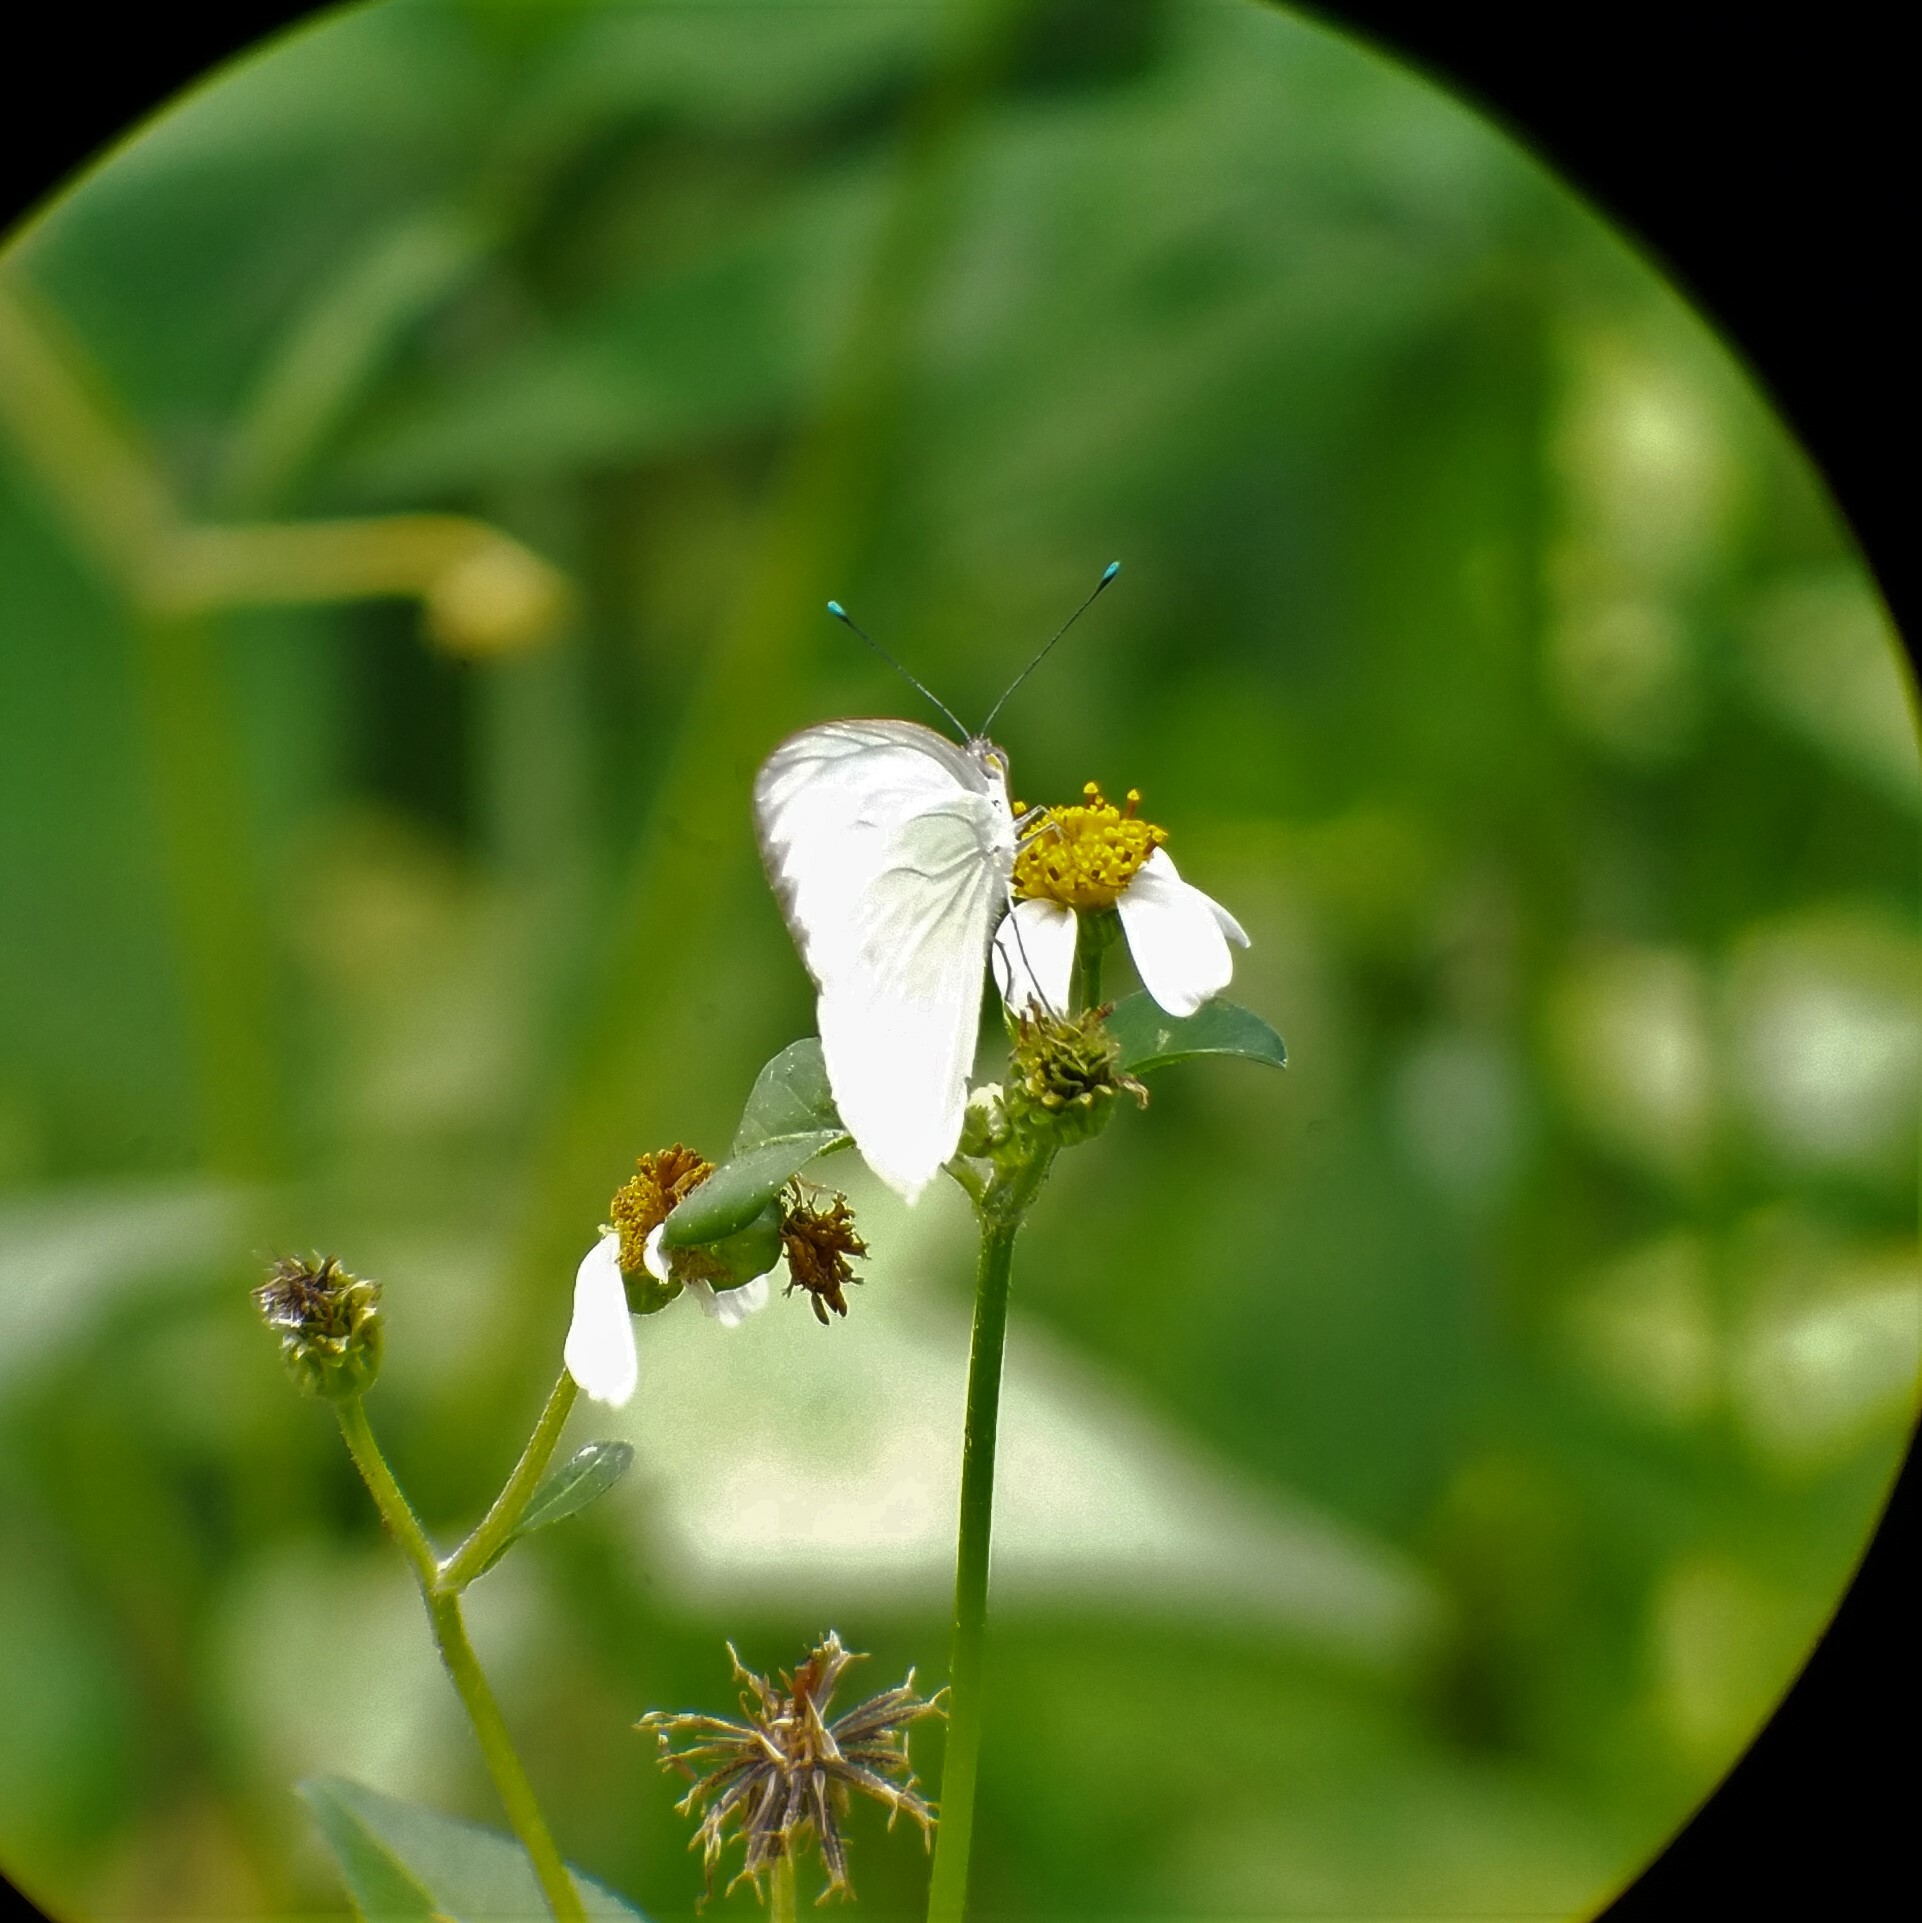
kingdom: Animalia
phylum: Arthropoda
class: Insecta
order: Lepidoptera
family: Pieridae
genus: Ascia
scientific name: Ascia monuste
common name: Great southern white
